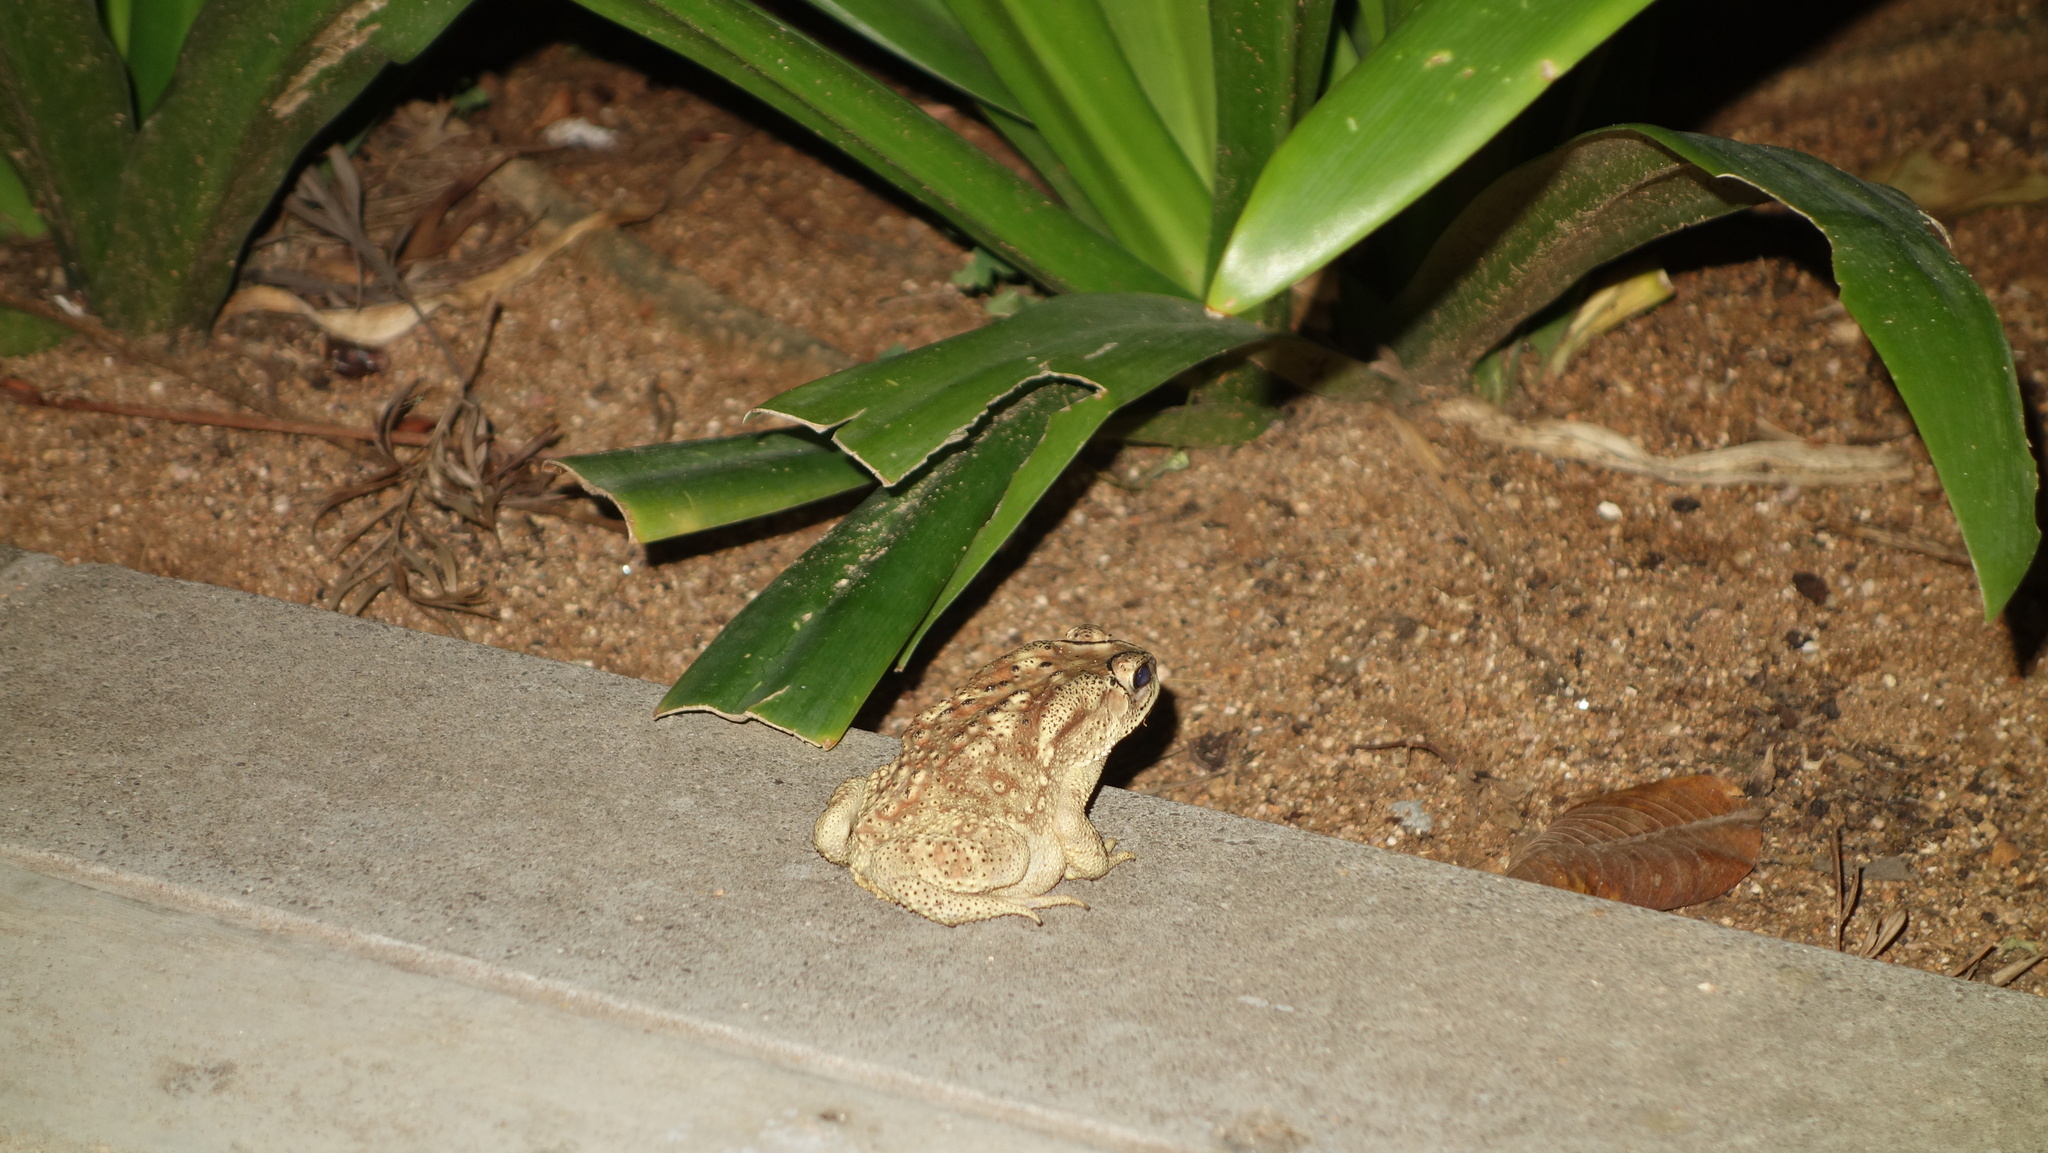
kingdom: Animalia
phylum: Chordata
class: Amphibia
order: Anura
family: Bufonidae
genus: Duttaphrynus
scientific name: Duttaphrynus melanostictus
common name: Common sunda toad
